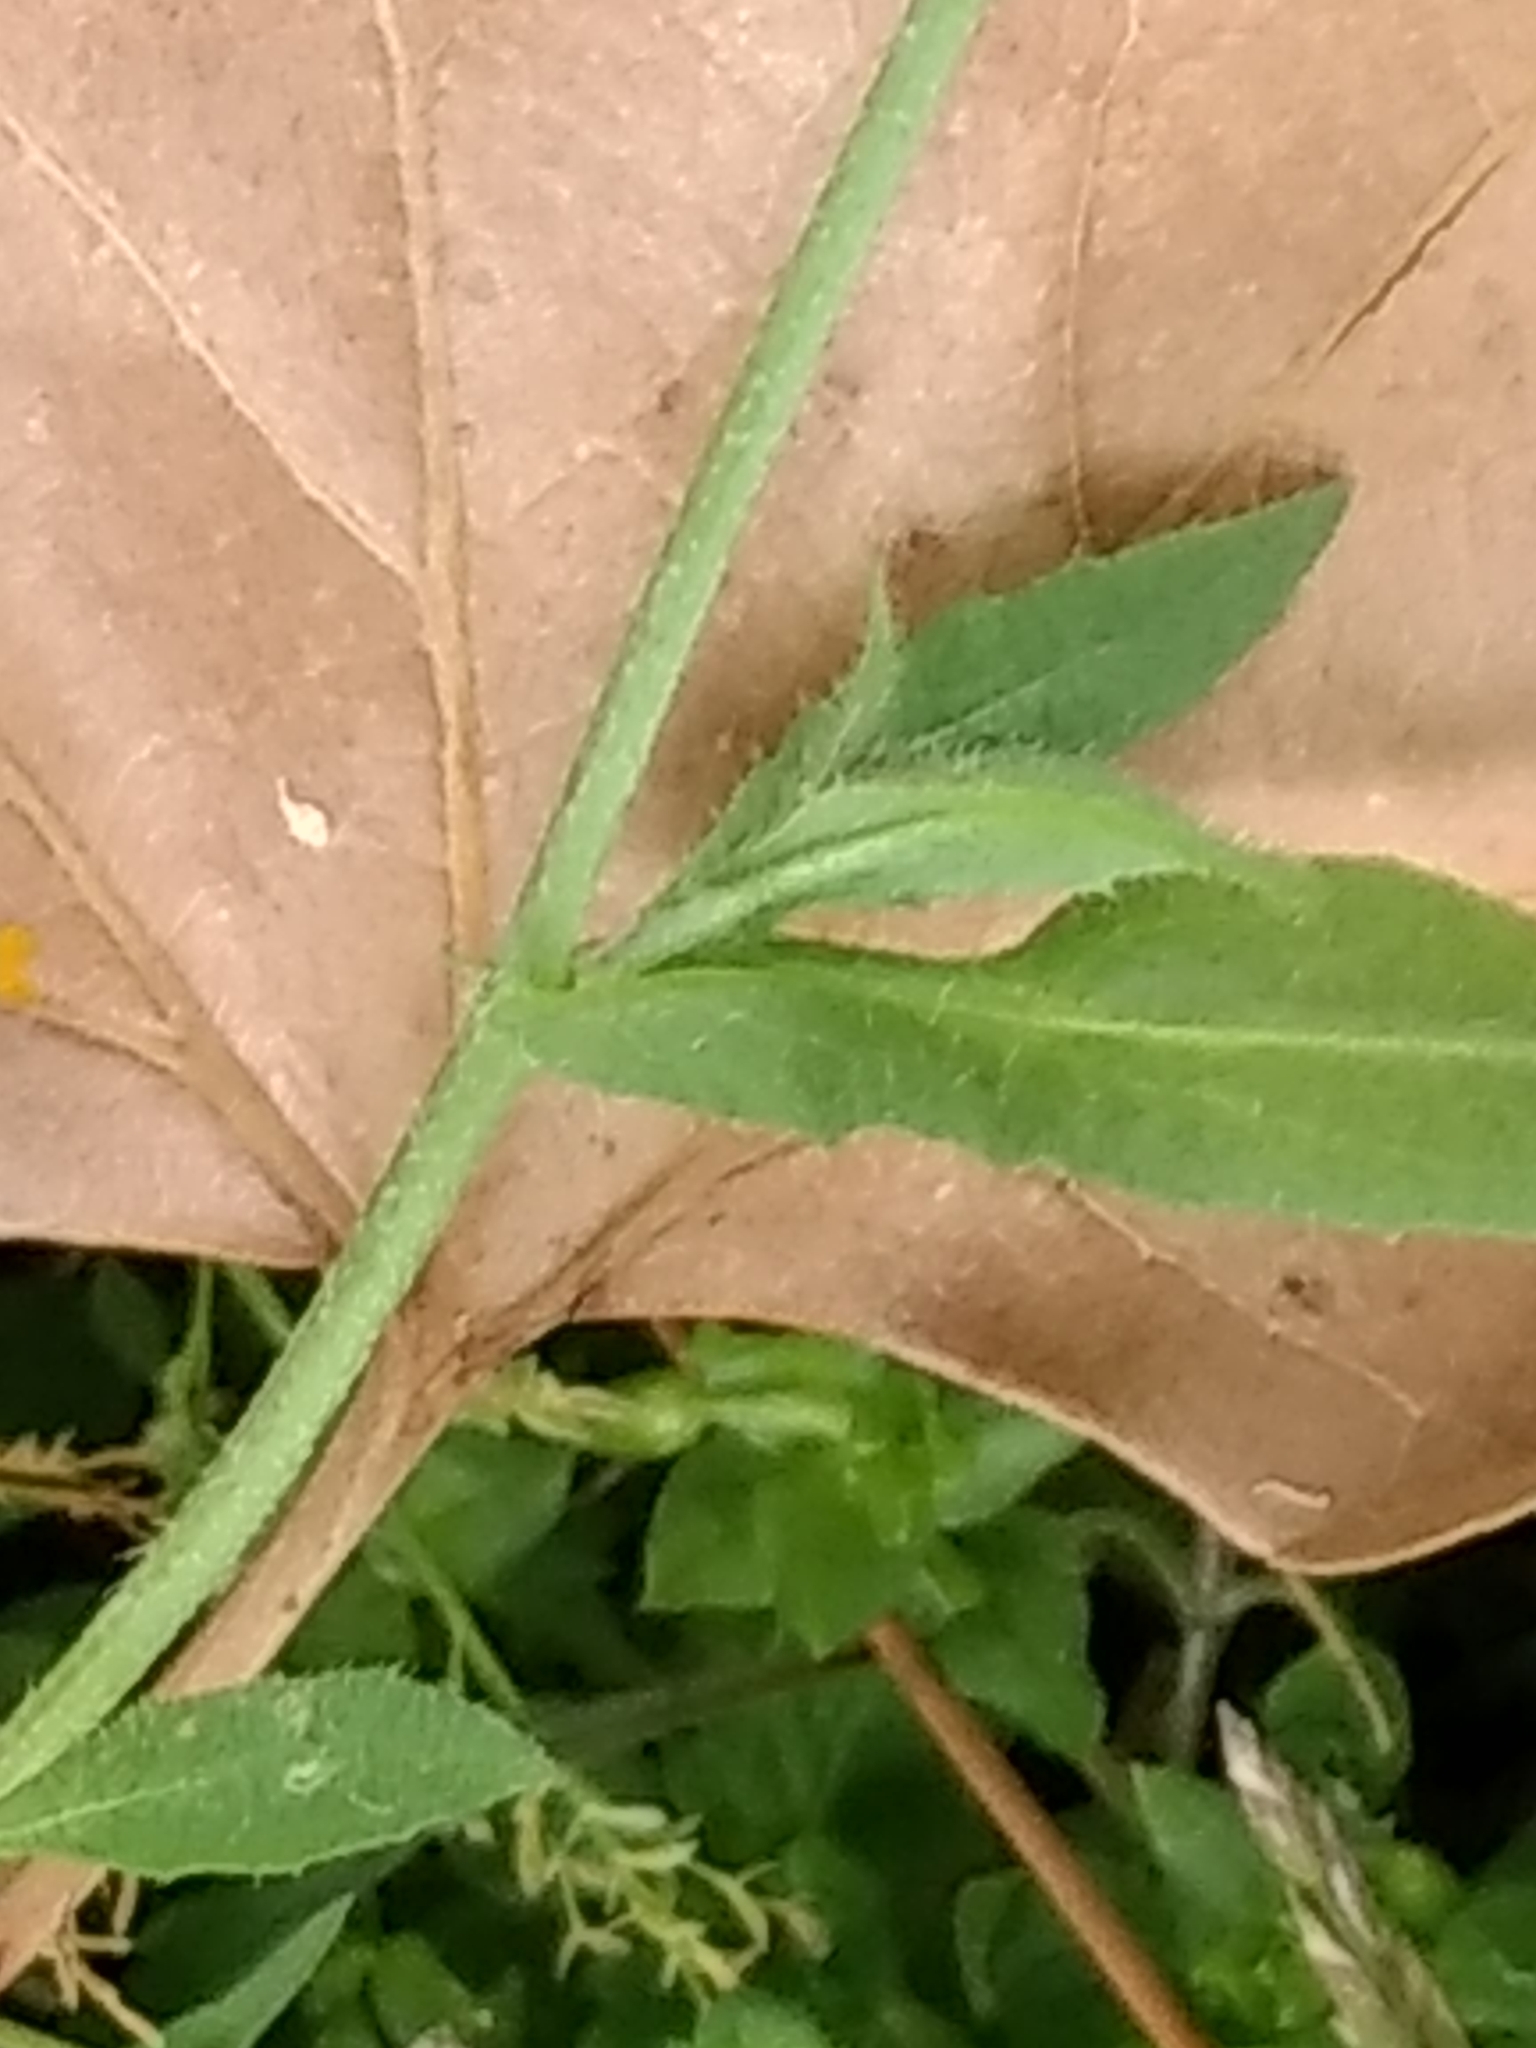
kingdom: Plantae
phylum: Tracheophyta
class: Magnoliopsida
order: Brassicales
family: Brassicaceae
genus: Capsella
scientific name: Capsella bursa-pastoris
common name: Shepherd's purse
